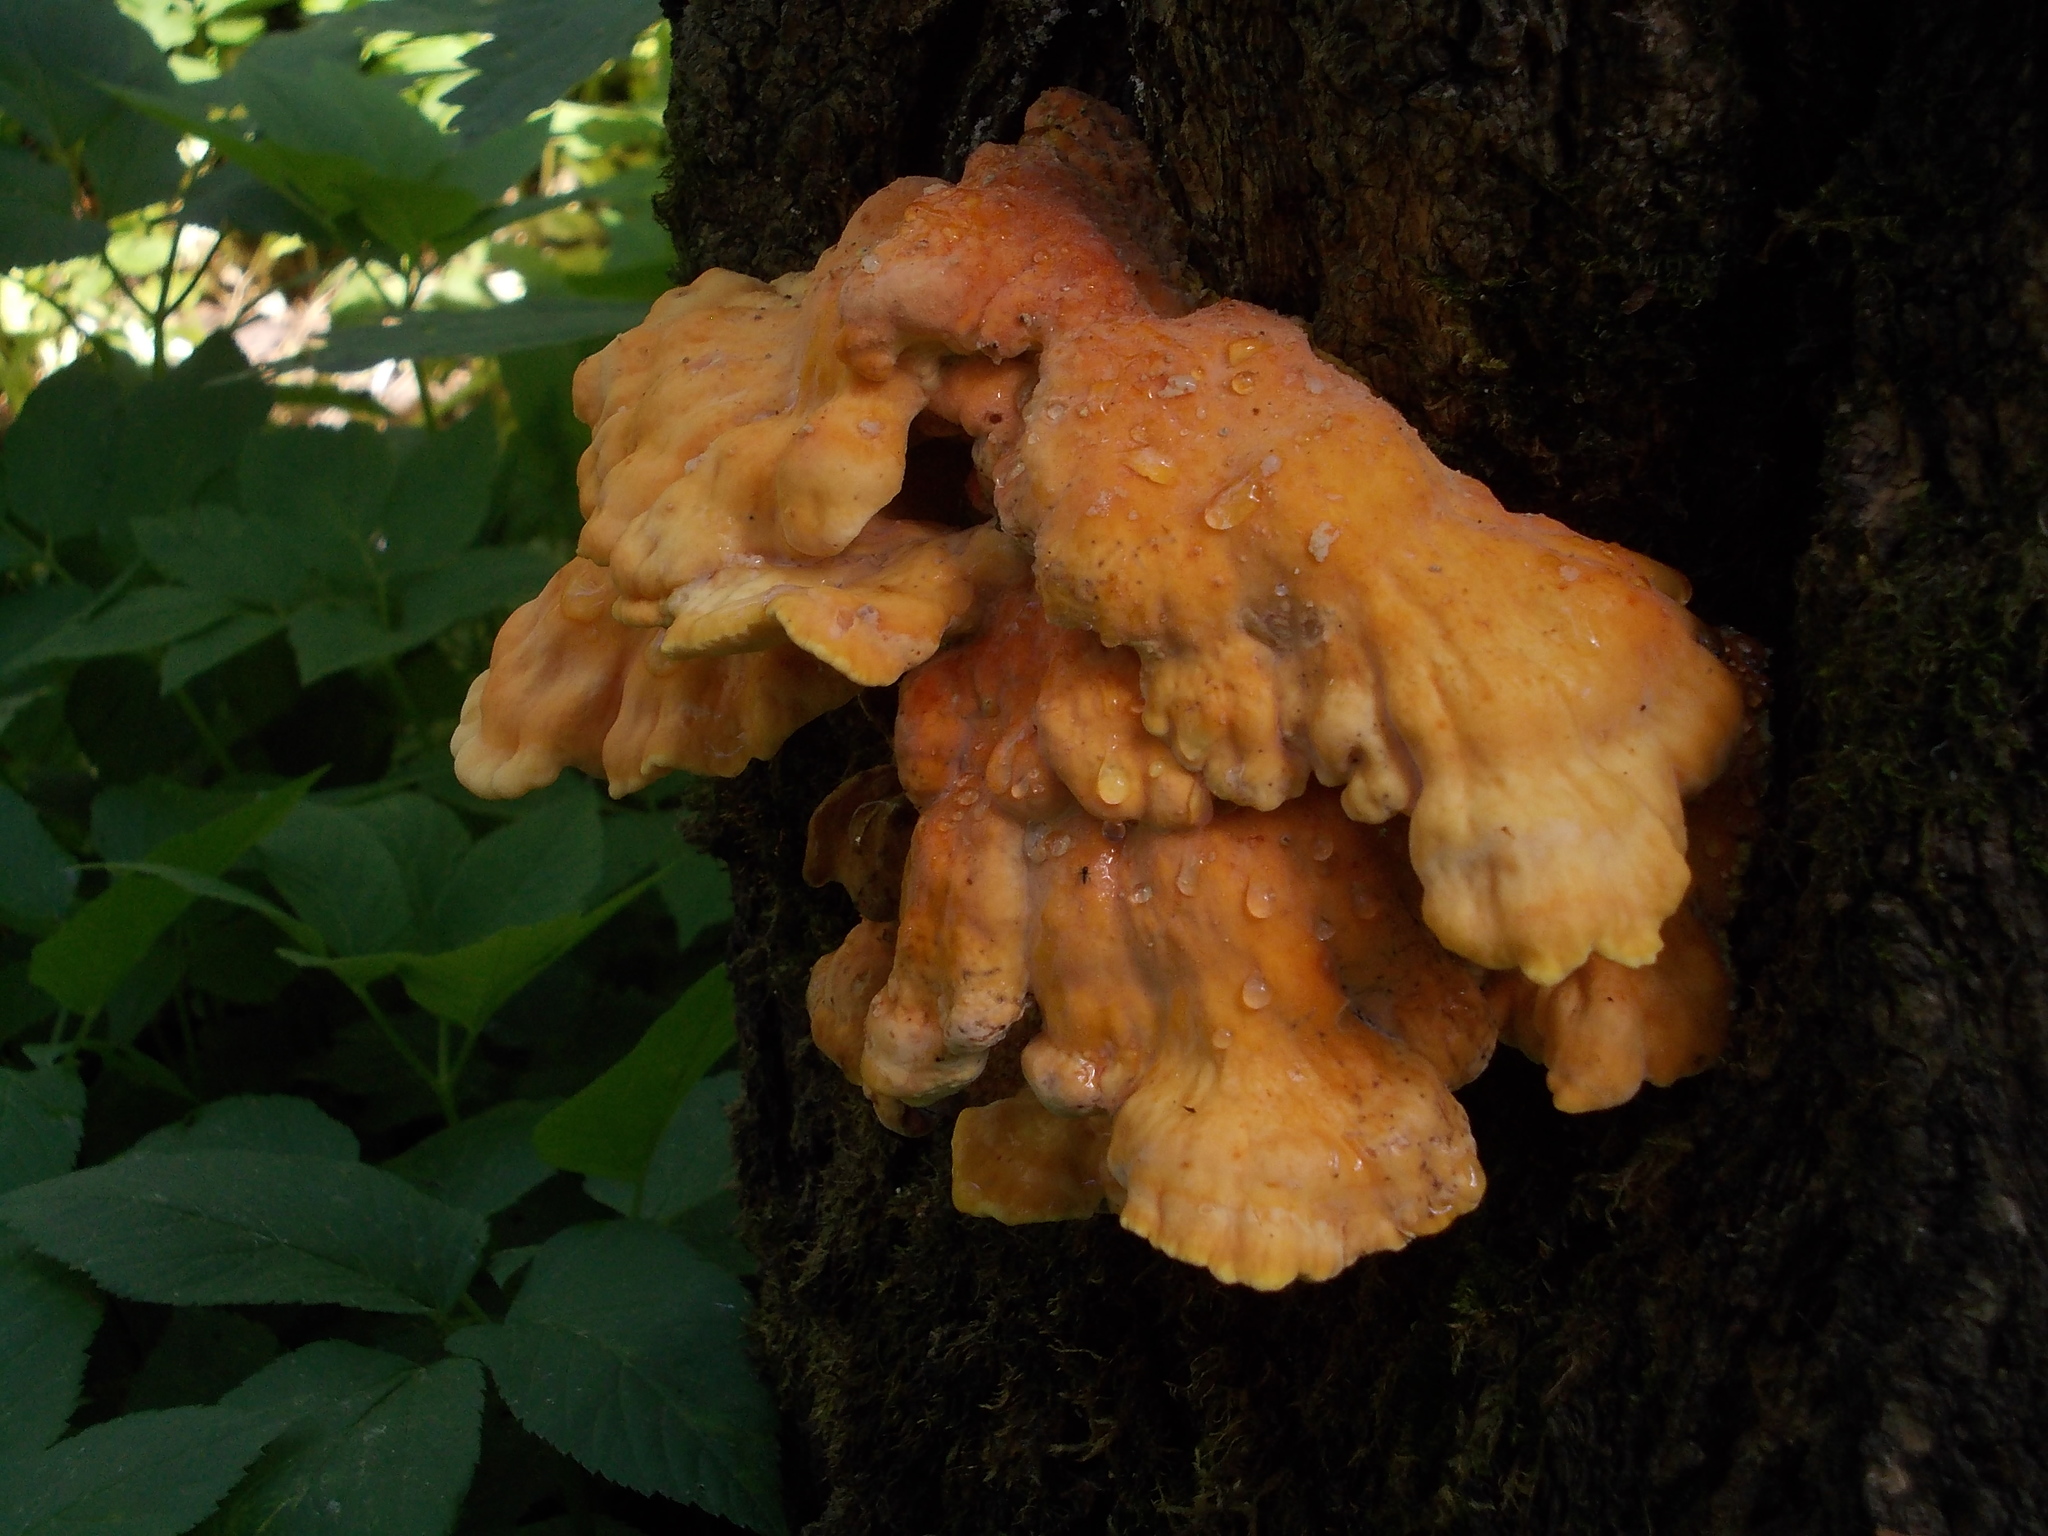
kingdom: Fungi
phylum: Basidiomycota
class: Agaricomycetes
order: Polyporales
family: Laetiporaceae
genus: Laetiporus
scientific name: Laetiporus sulphureus
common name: Chicken of the woods
